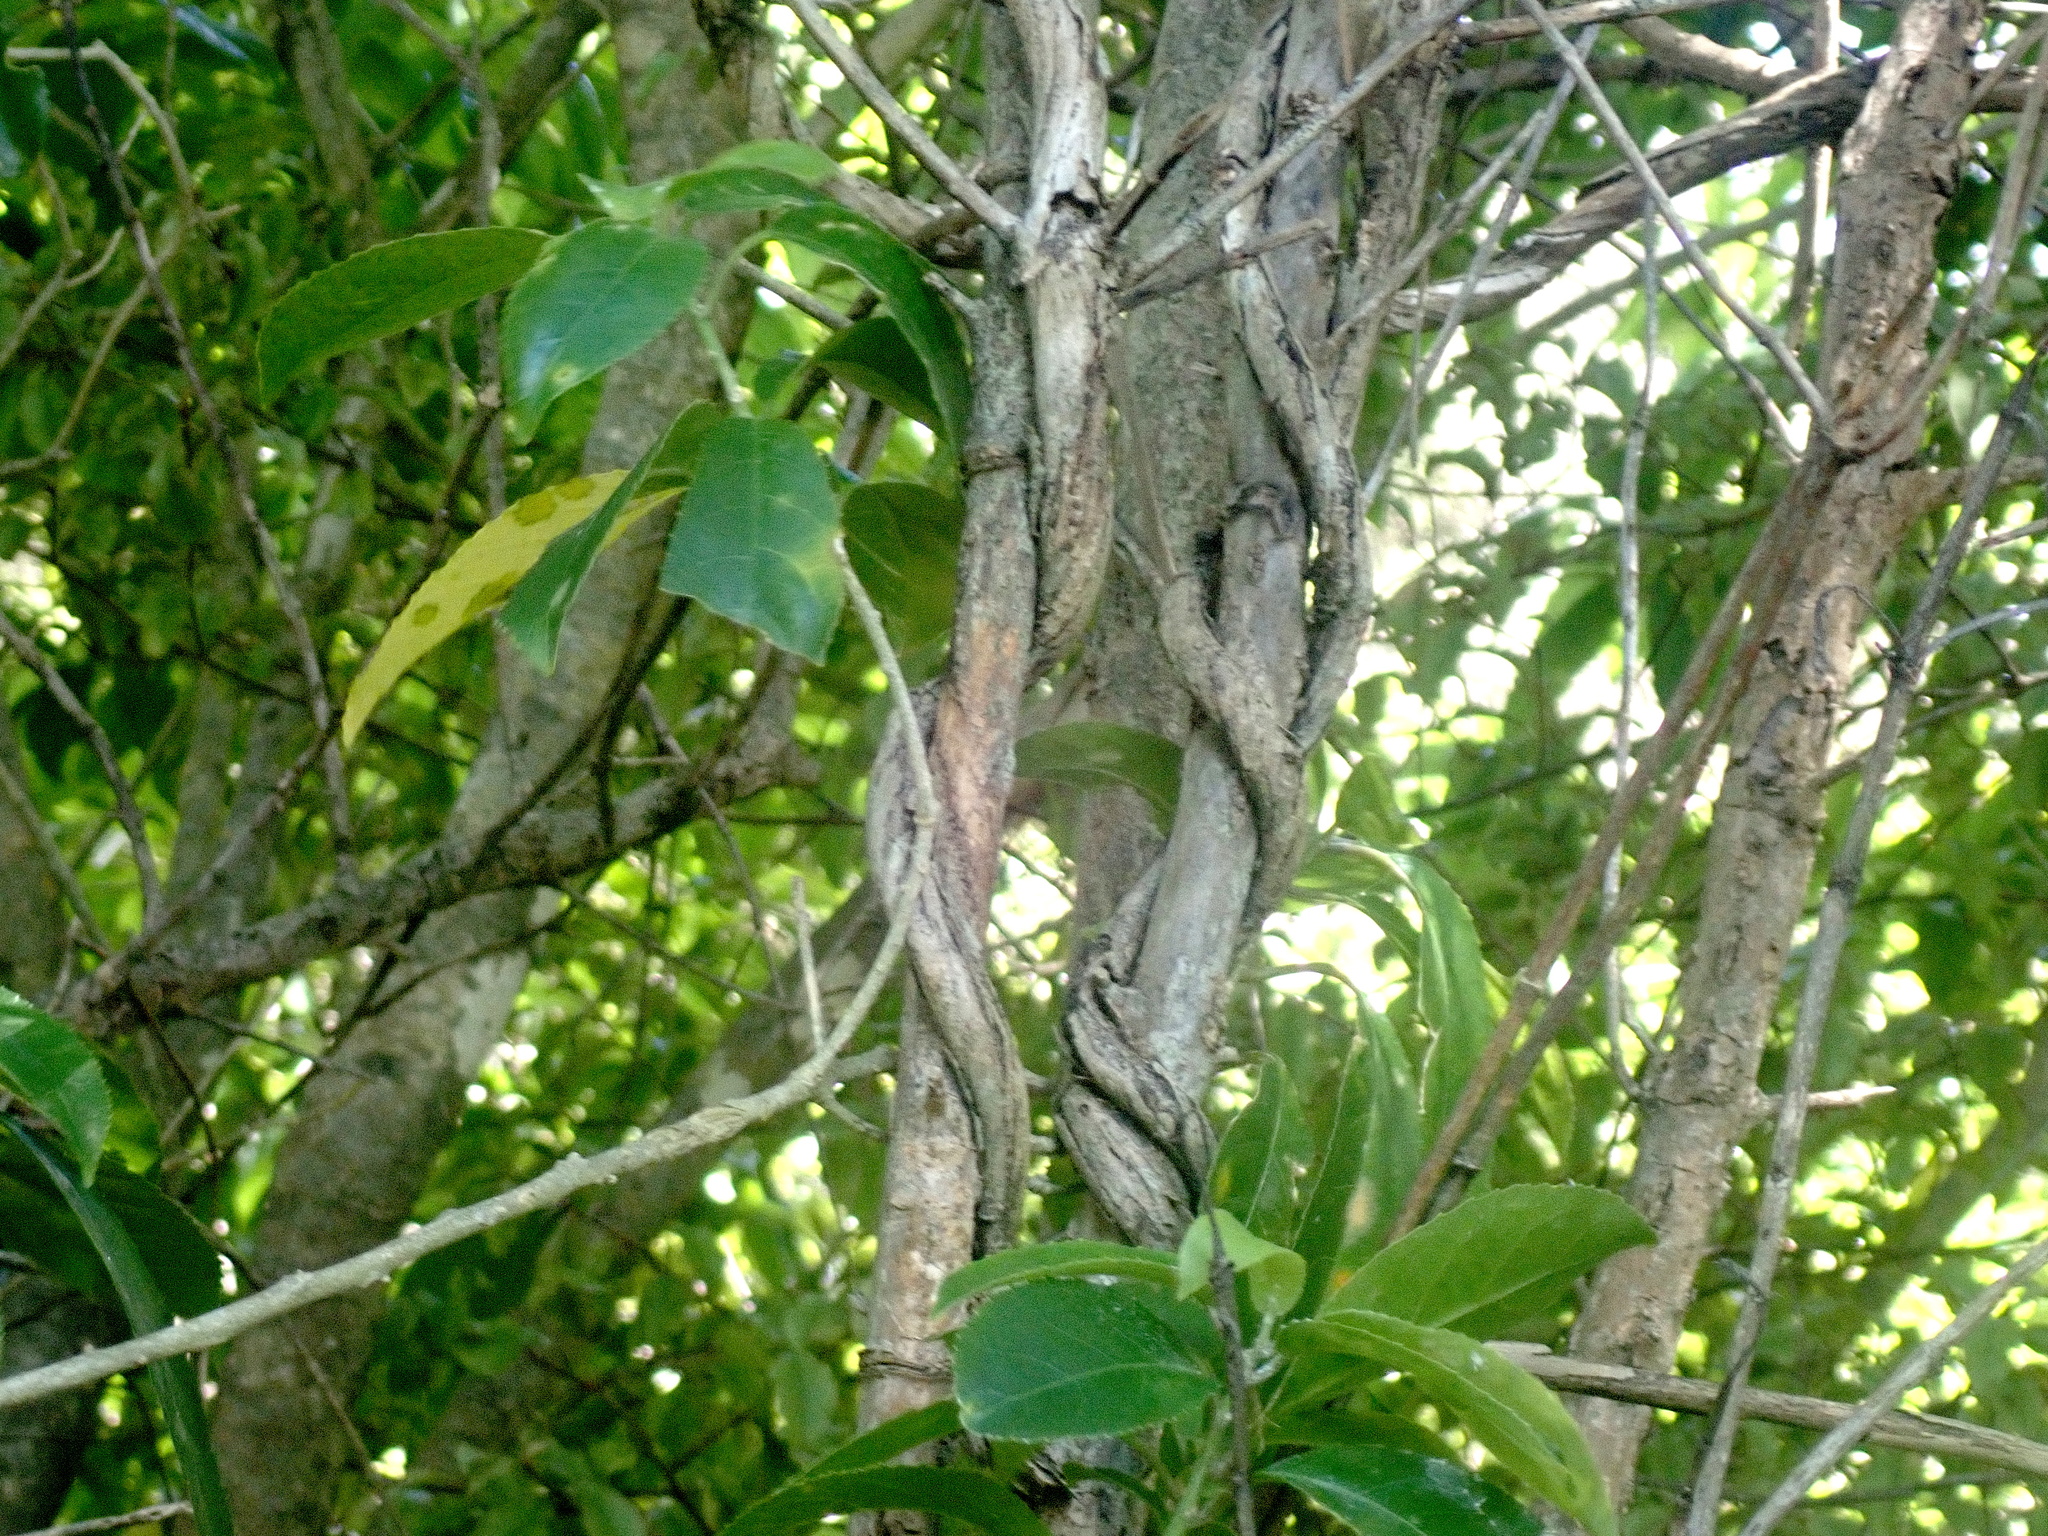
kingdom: Plantae
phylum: Tracheophyta
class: Magnoliopsida
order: Ericales
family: Primulaceae
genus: Myrsine
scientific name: Myrsine australis
